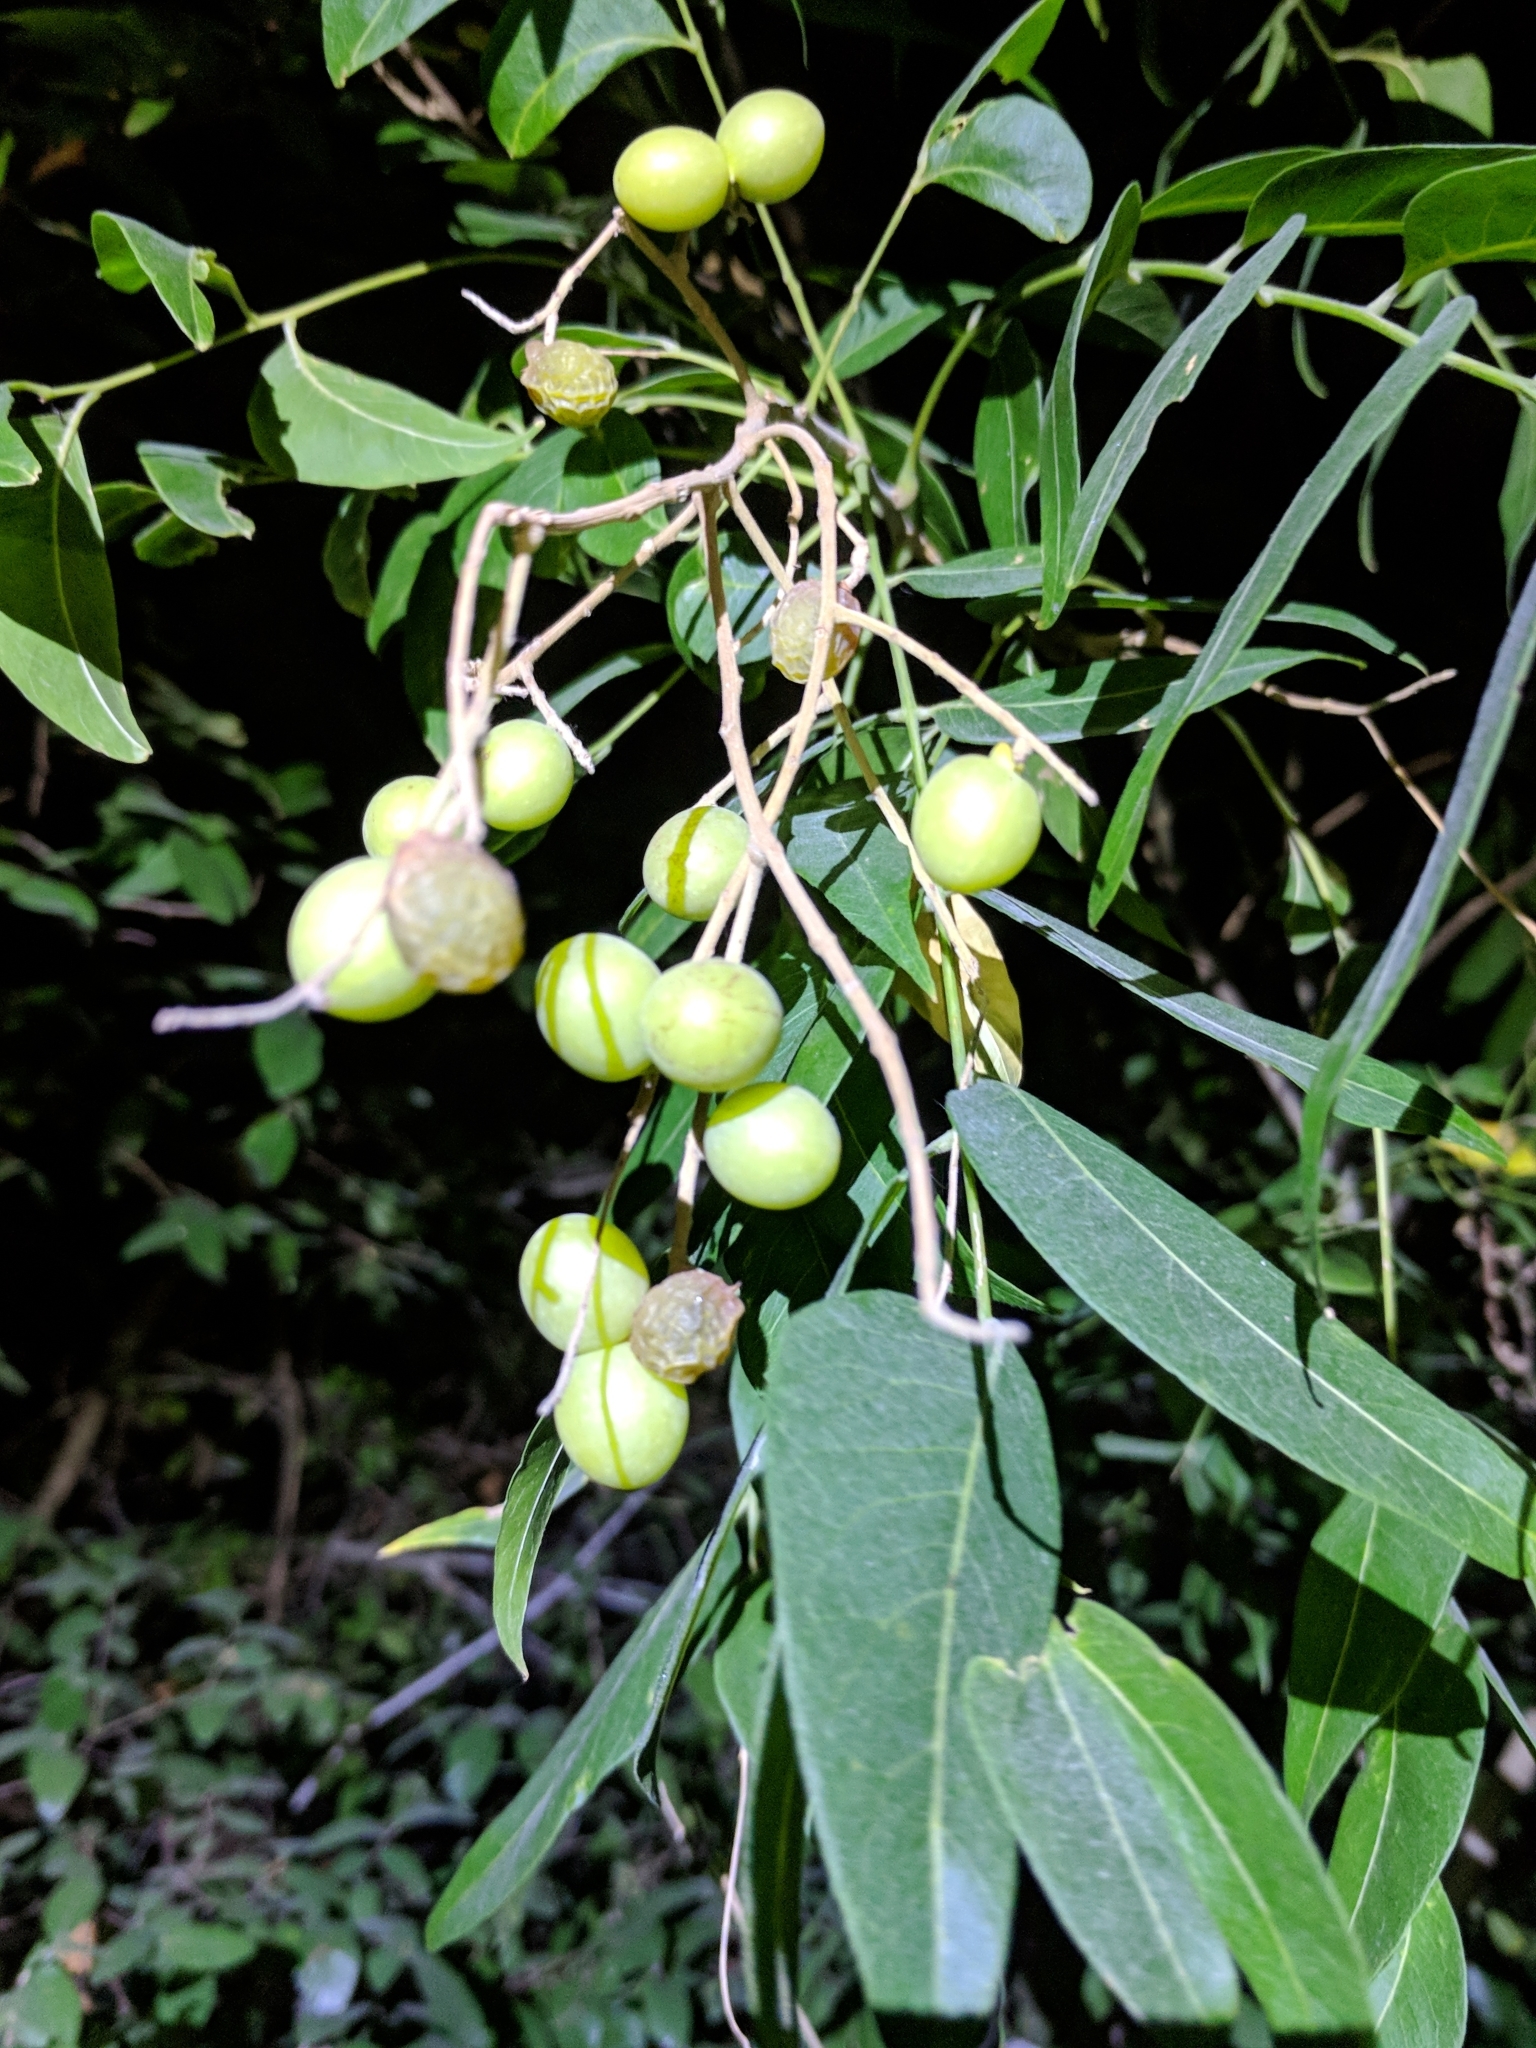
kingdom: Plantae
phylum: Tracheophyta
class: Magnoliopsida
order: Sapindales
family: Sapindaceae
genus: Sapindus
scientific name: Sapindus drummondii
